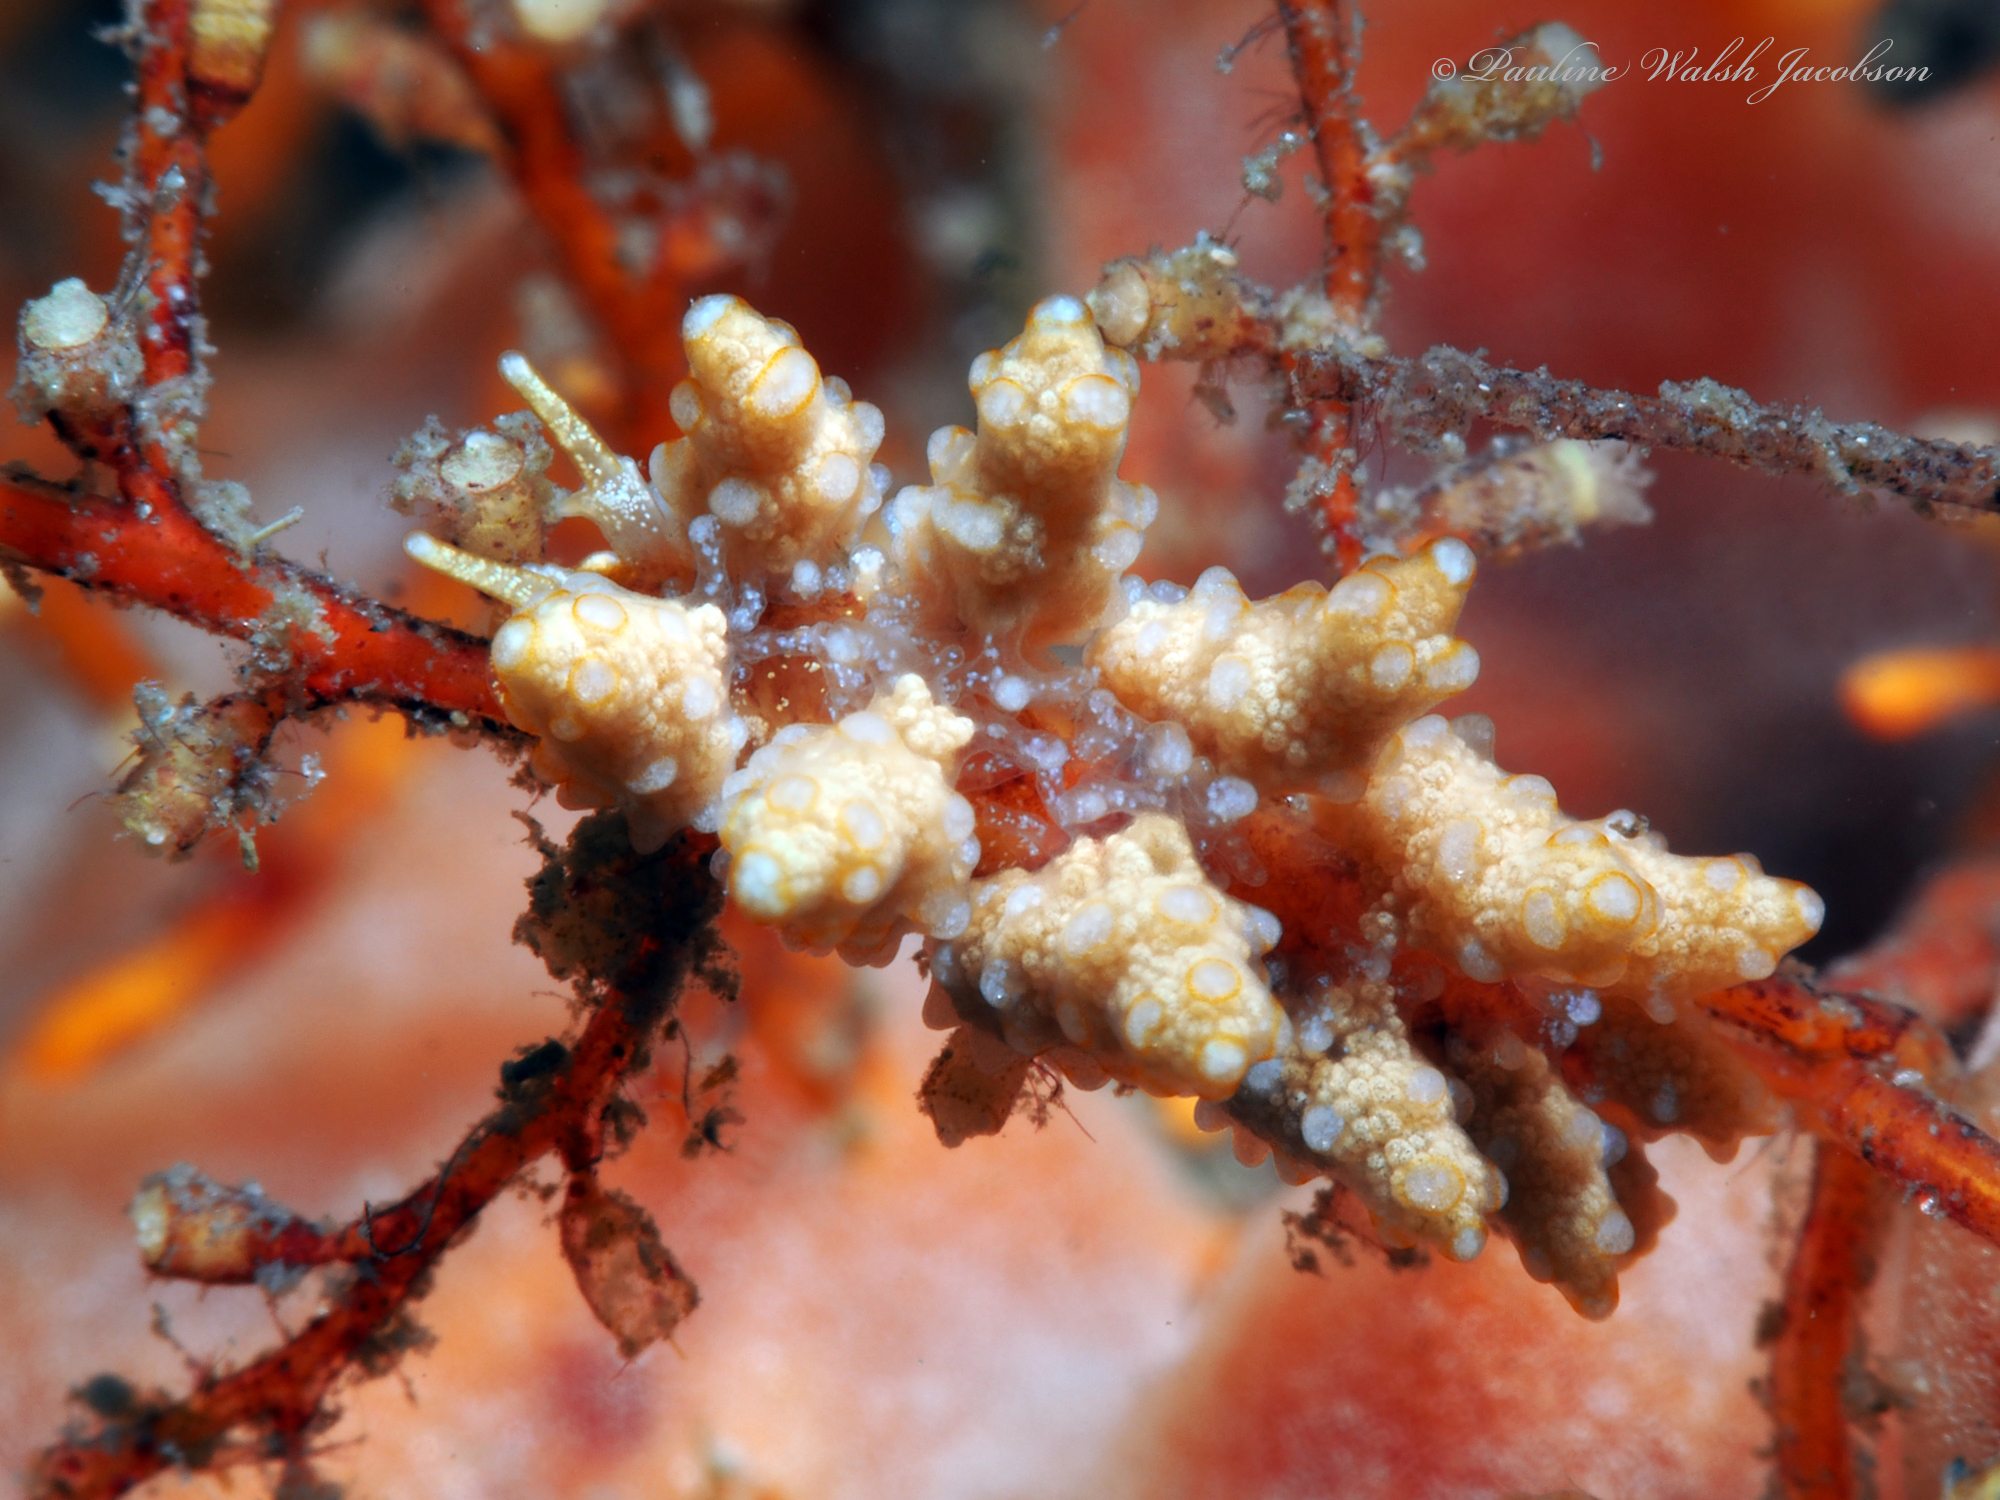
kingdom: Animalia
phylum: Mollusca
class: Gastropoda
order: Nudibranchia
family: Dotidae
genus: Doto
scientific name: Doto torrelavega
